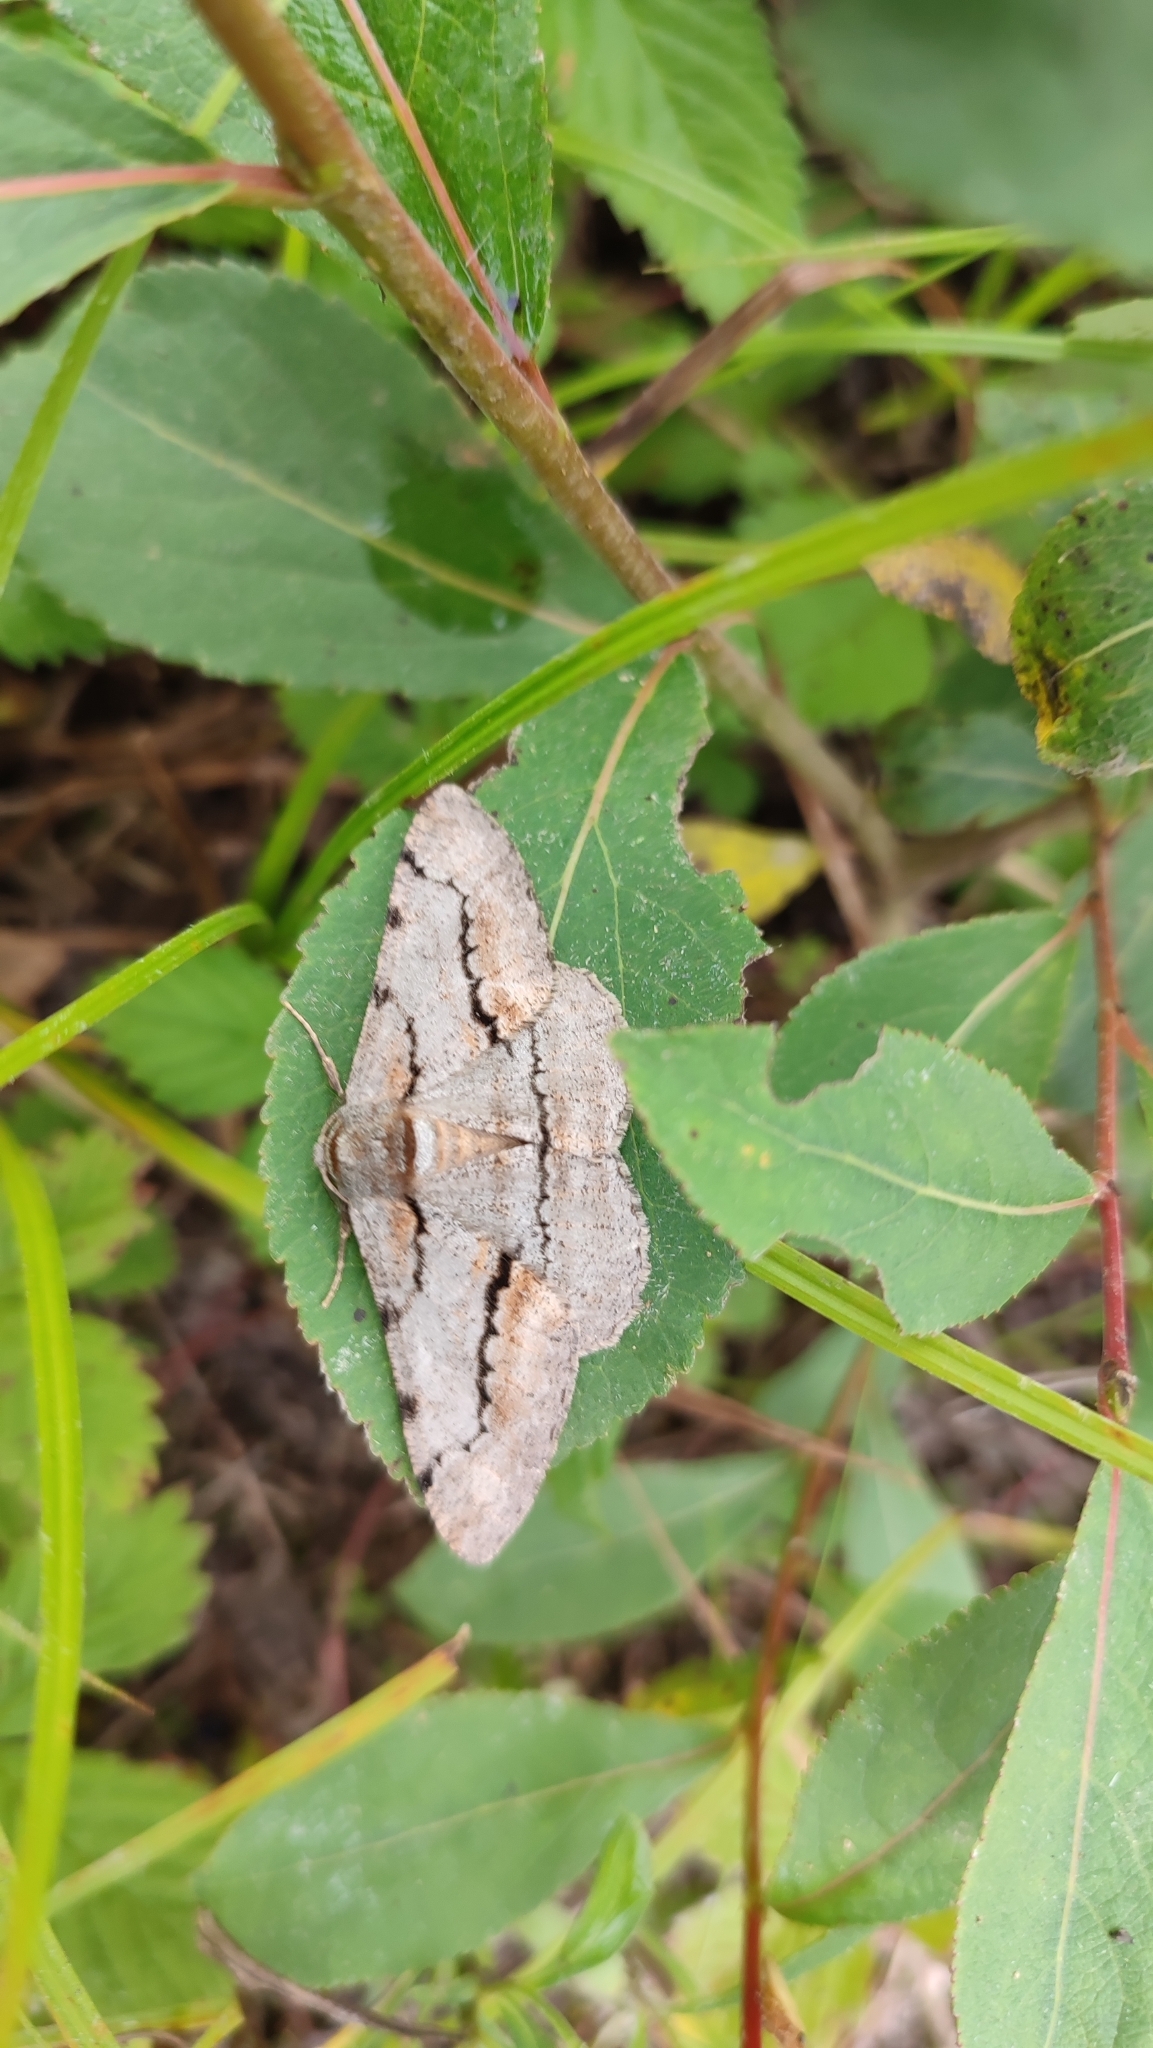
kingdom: Animalia
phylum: Arthropoda
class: Insecta
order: Lepidoptera
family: Geometridae
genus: Phthonosema
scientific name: Phthonosema tendinosaria
